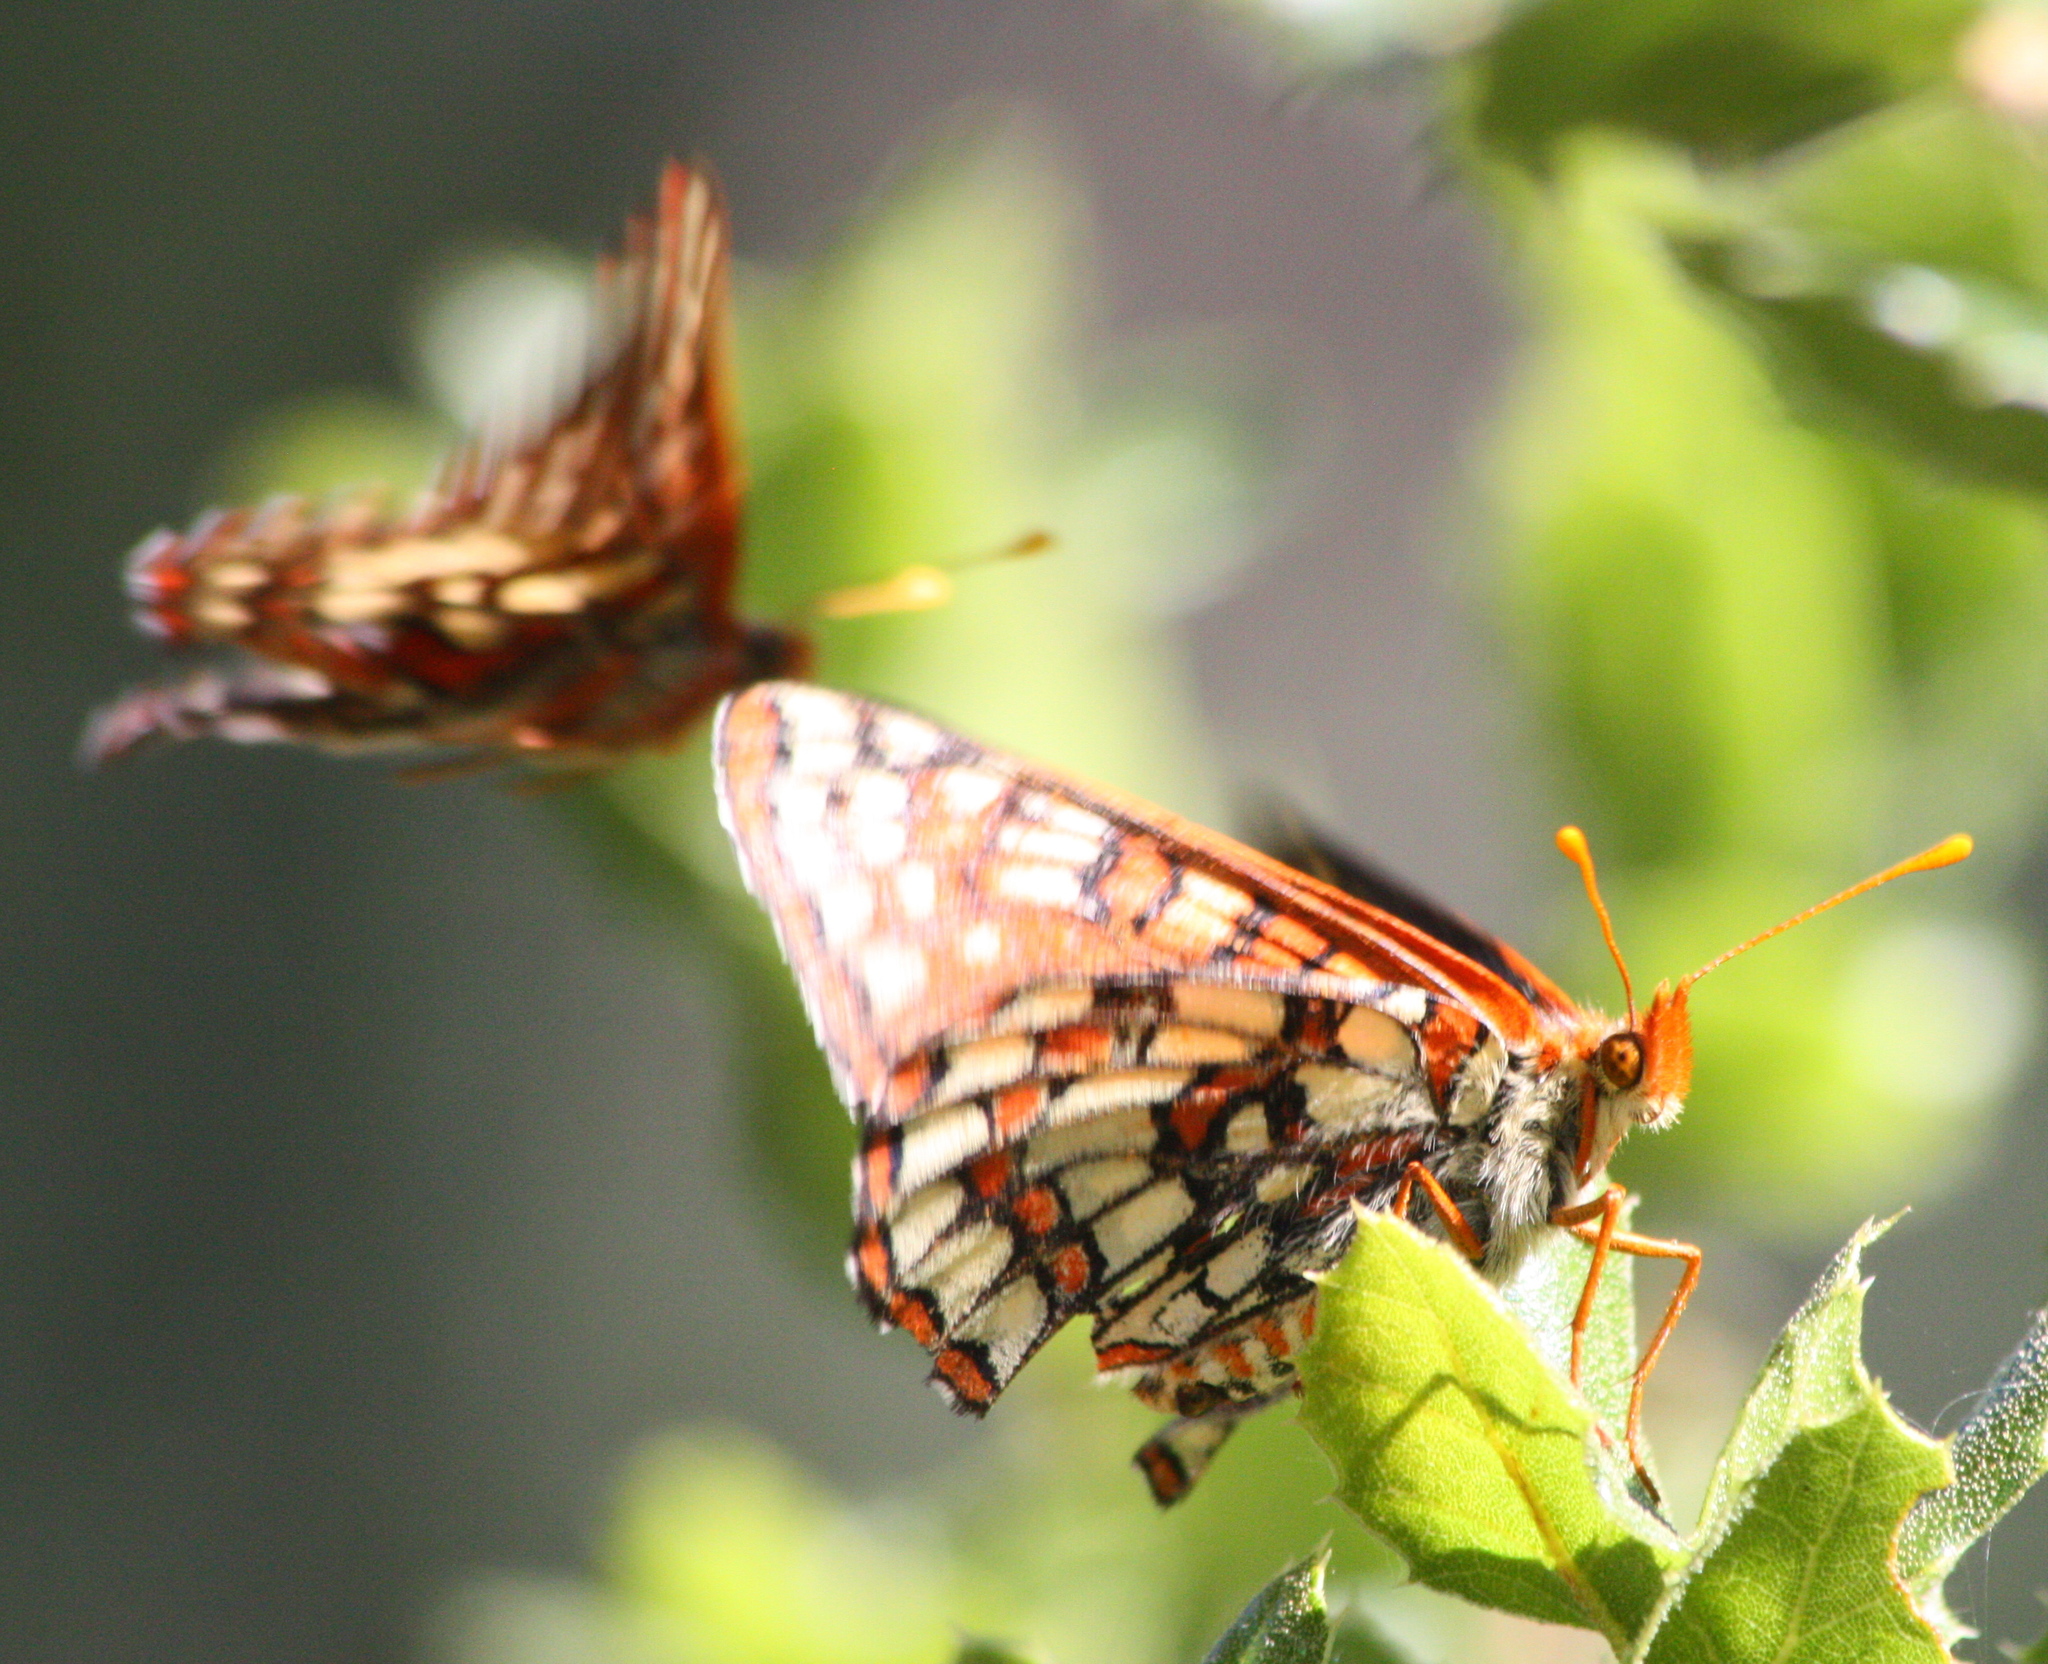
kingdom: Animalia
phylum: Arthropoda
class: Insecta
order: Lepidoptera
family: Nymphalidae
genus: Occidryas
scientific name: Occidryas chalcedona
